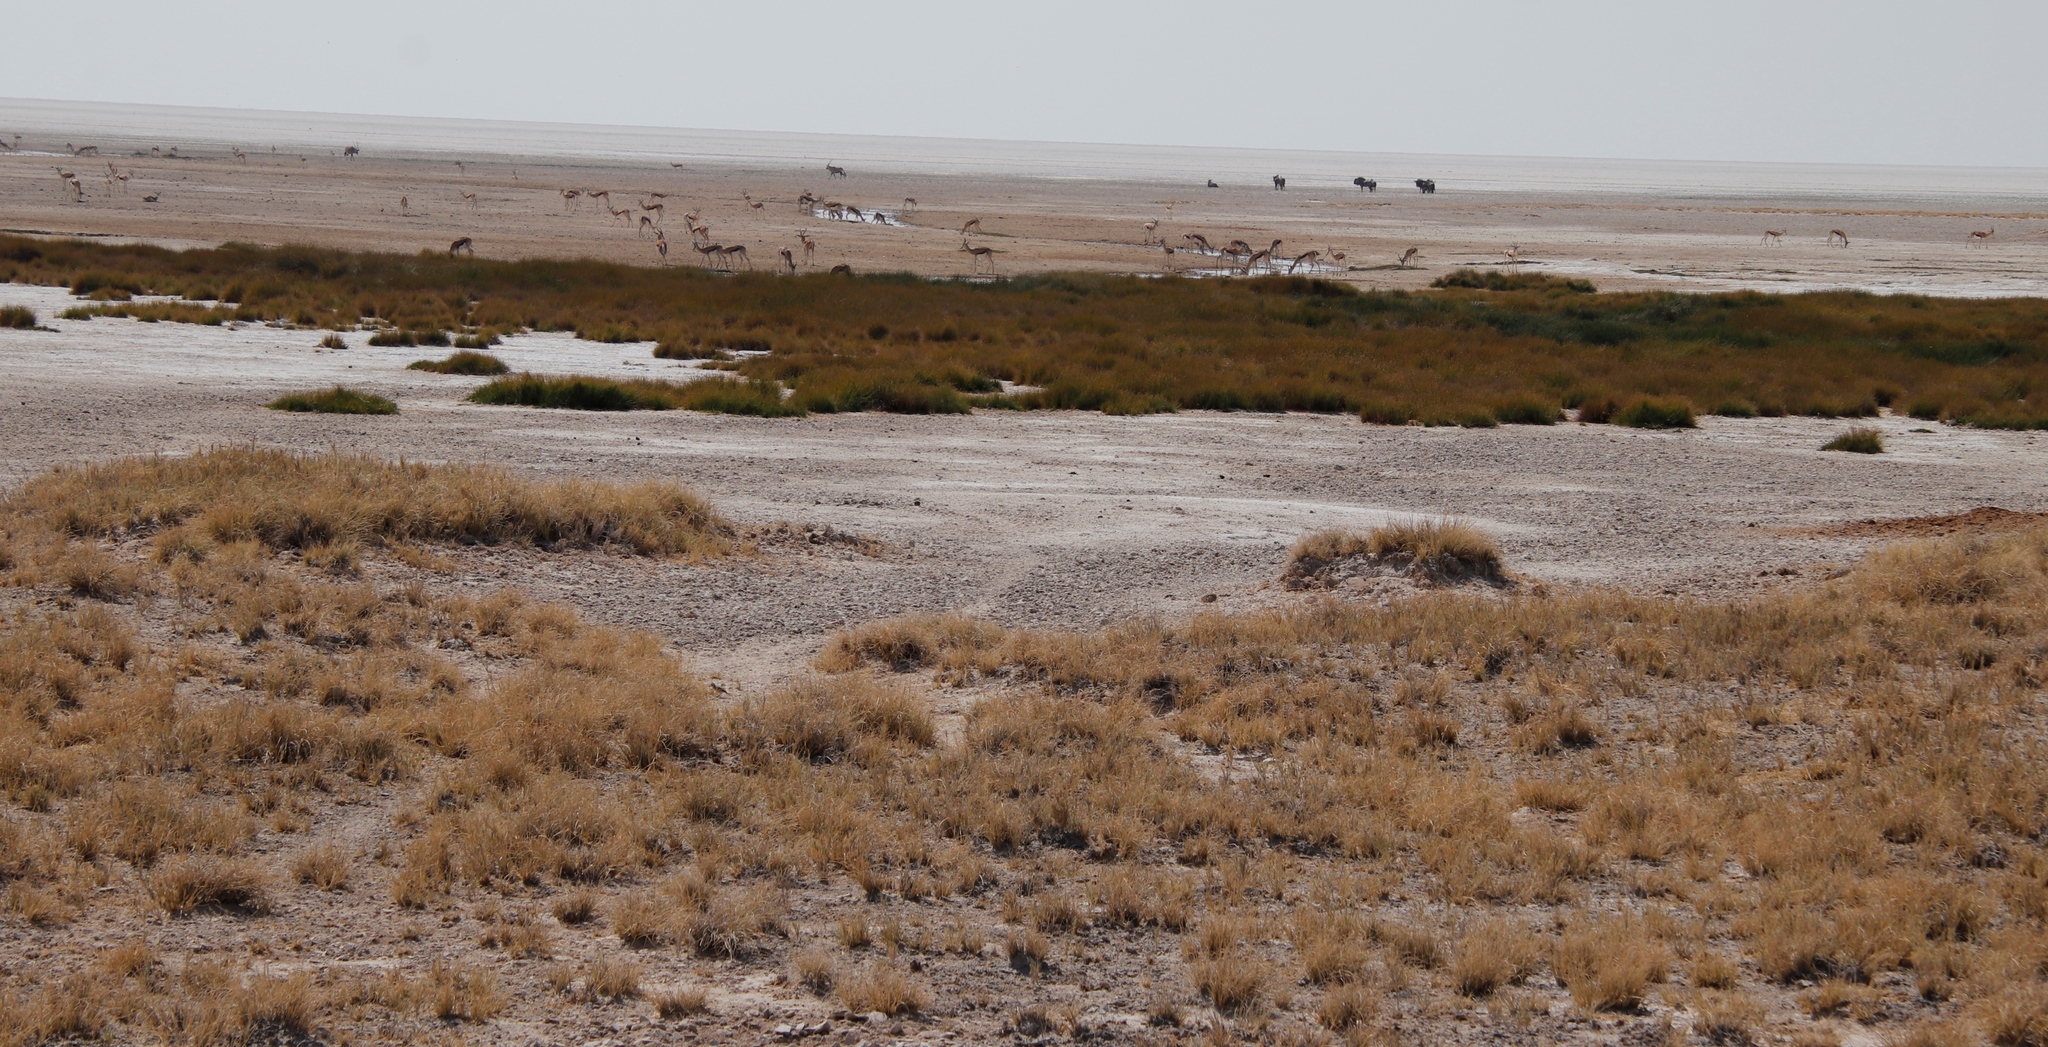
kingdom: Animalia
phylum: Chordata
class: Mammalia
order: Artiodactyla
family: Bovidae
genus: Antidorcas
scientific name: Antidorcas marsupialis
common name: Springbok
